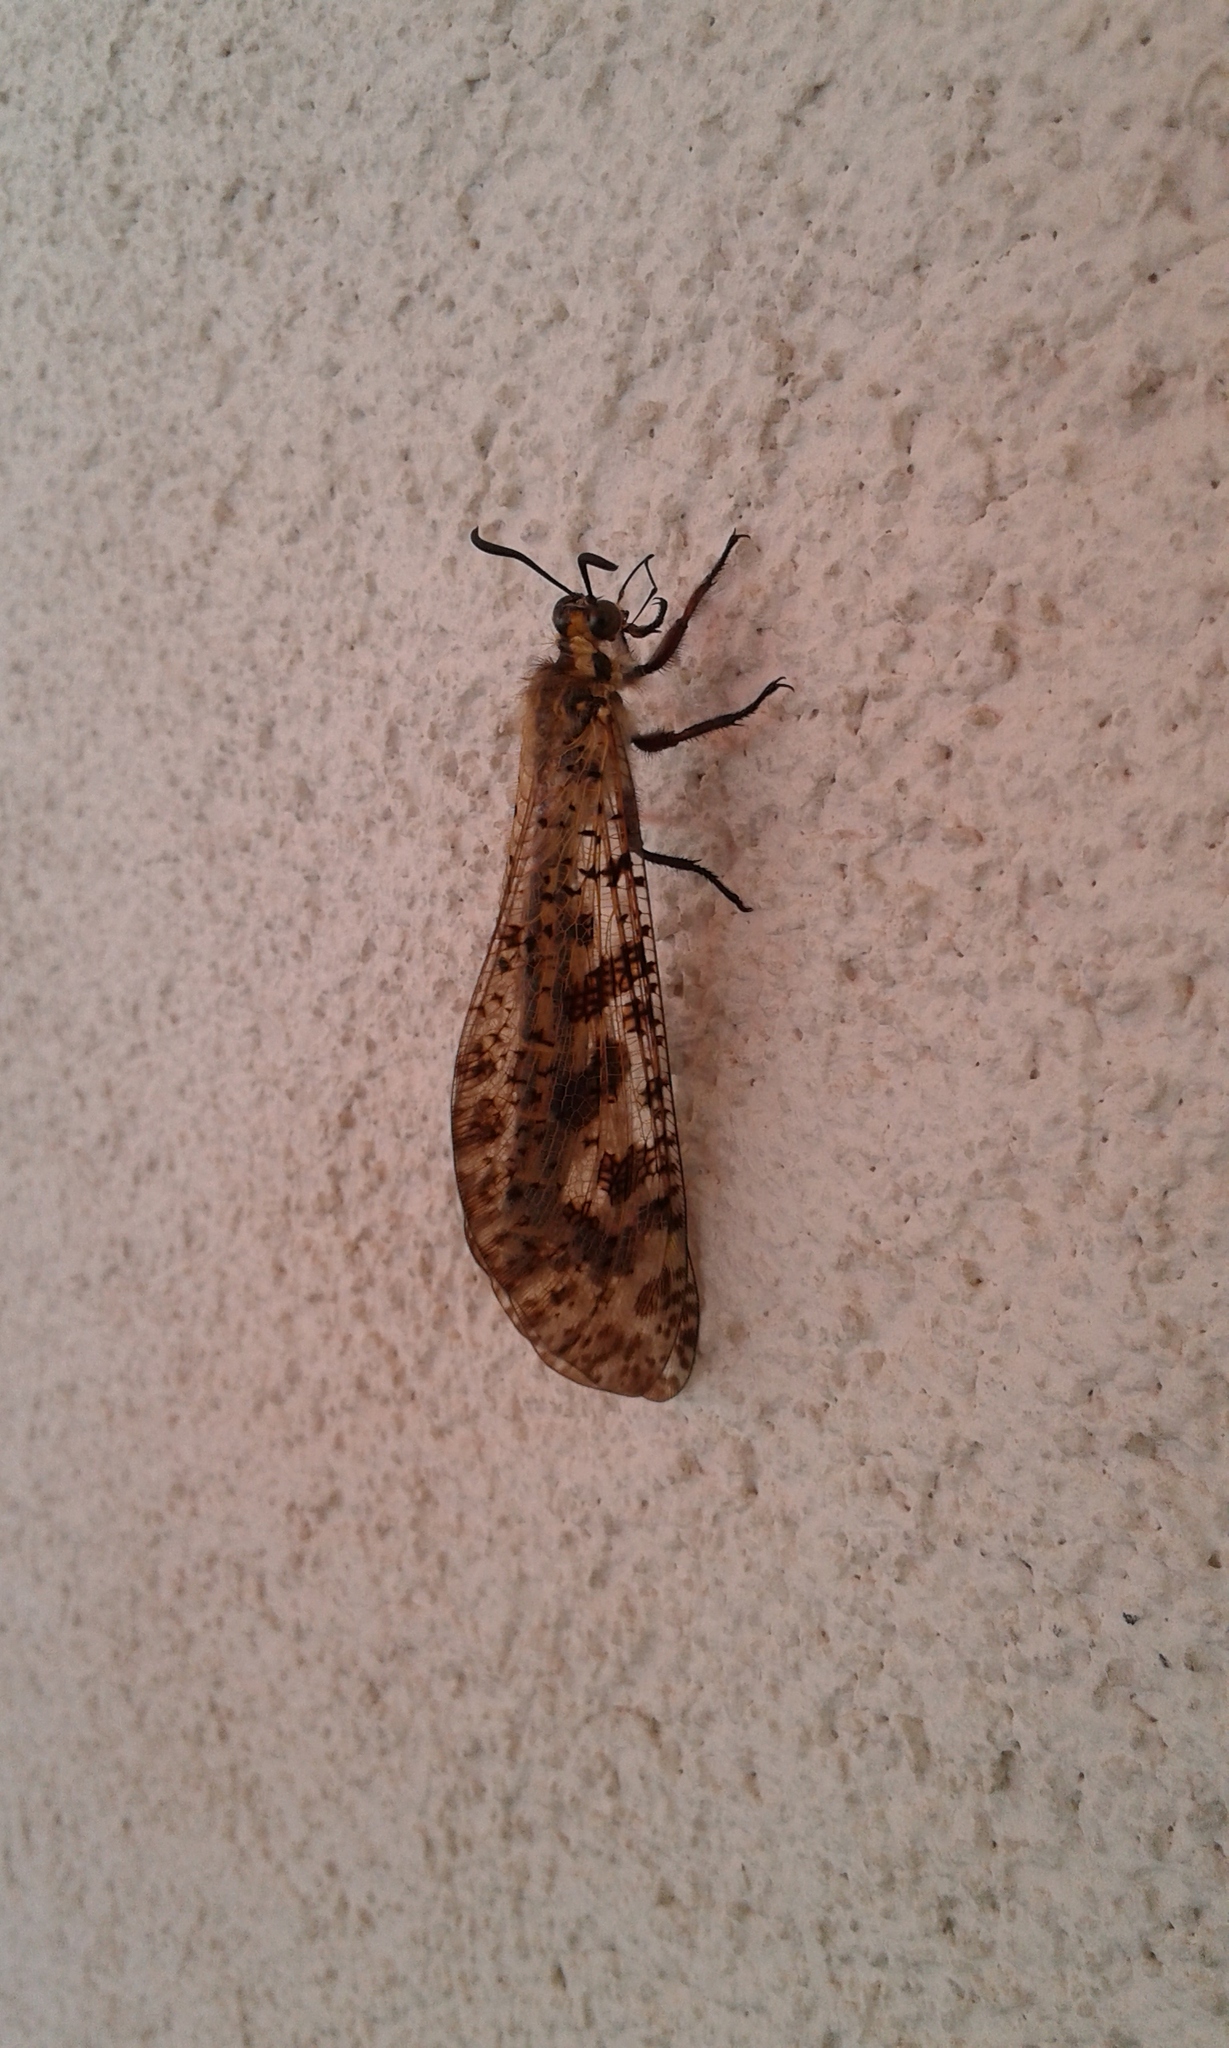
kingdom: Animalia
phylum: Arthropoda
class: Insecta
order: Neuroptera
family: Myrmeleontidae
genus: Palpares
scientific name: Palpares libelluloides
